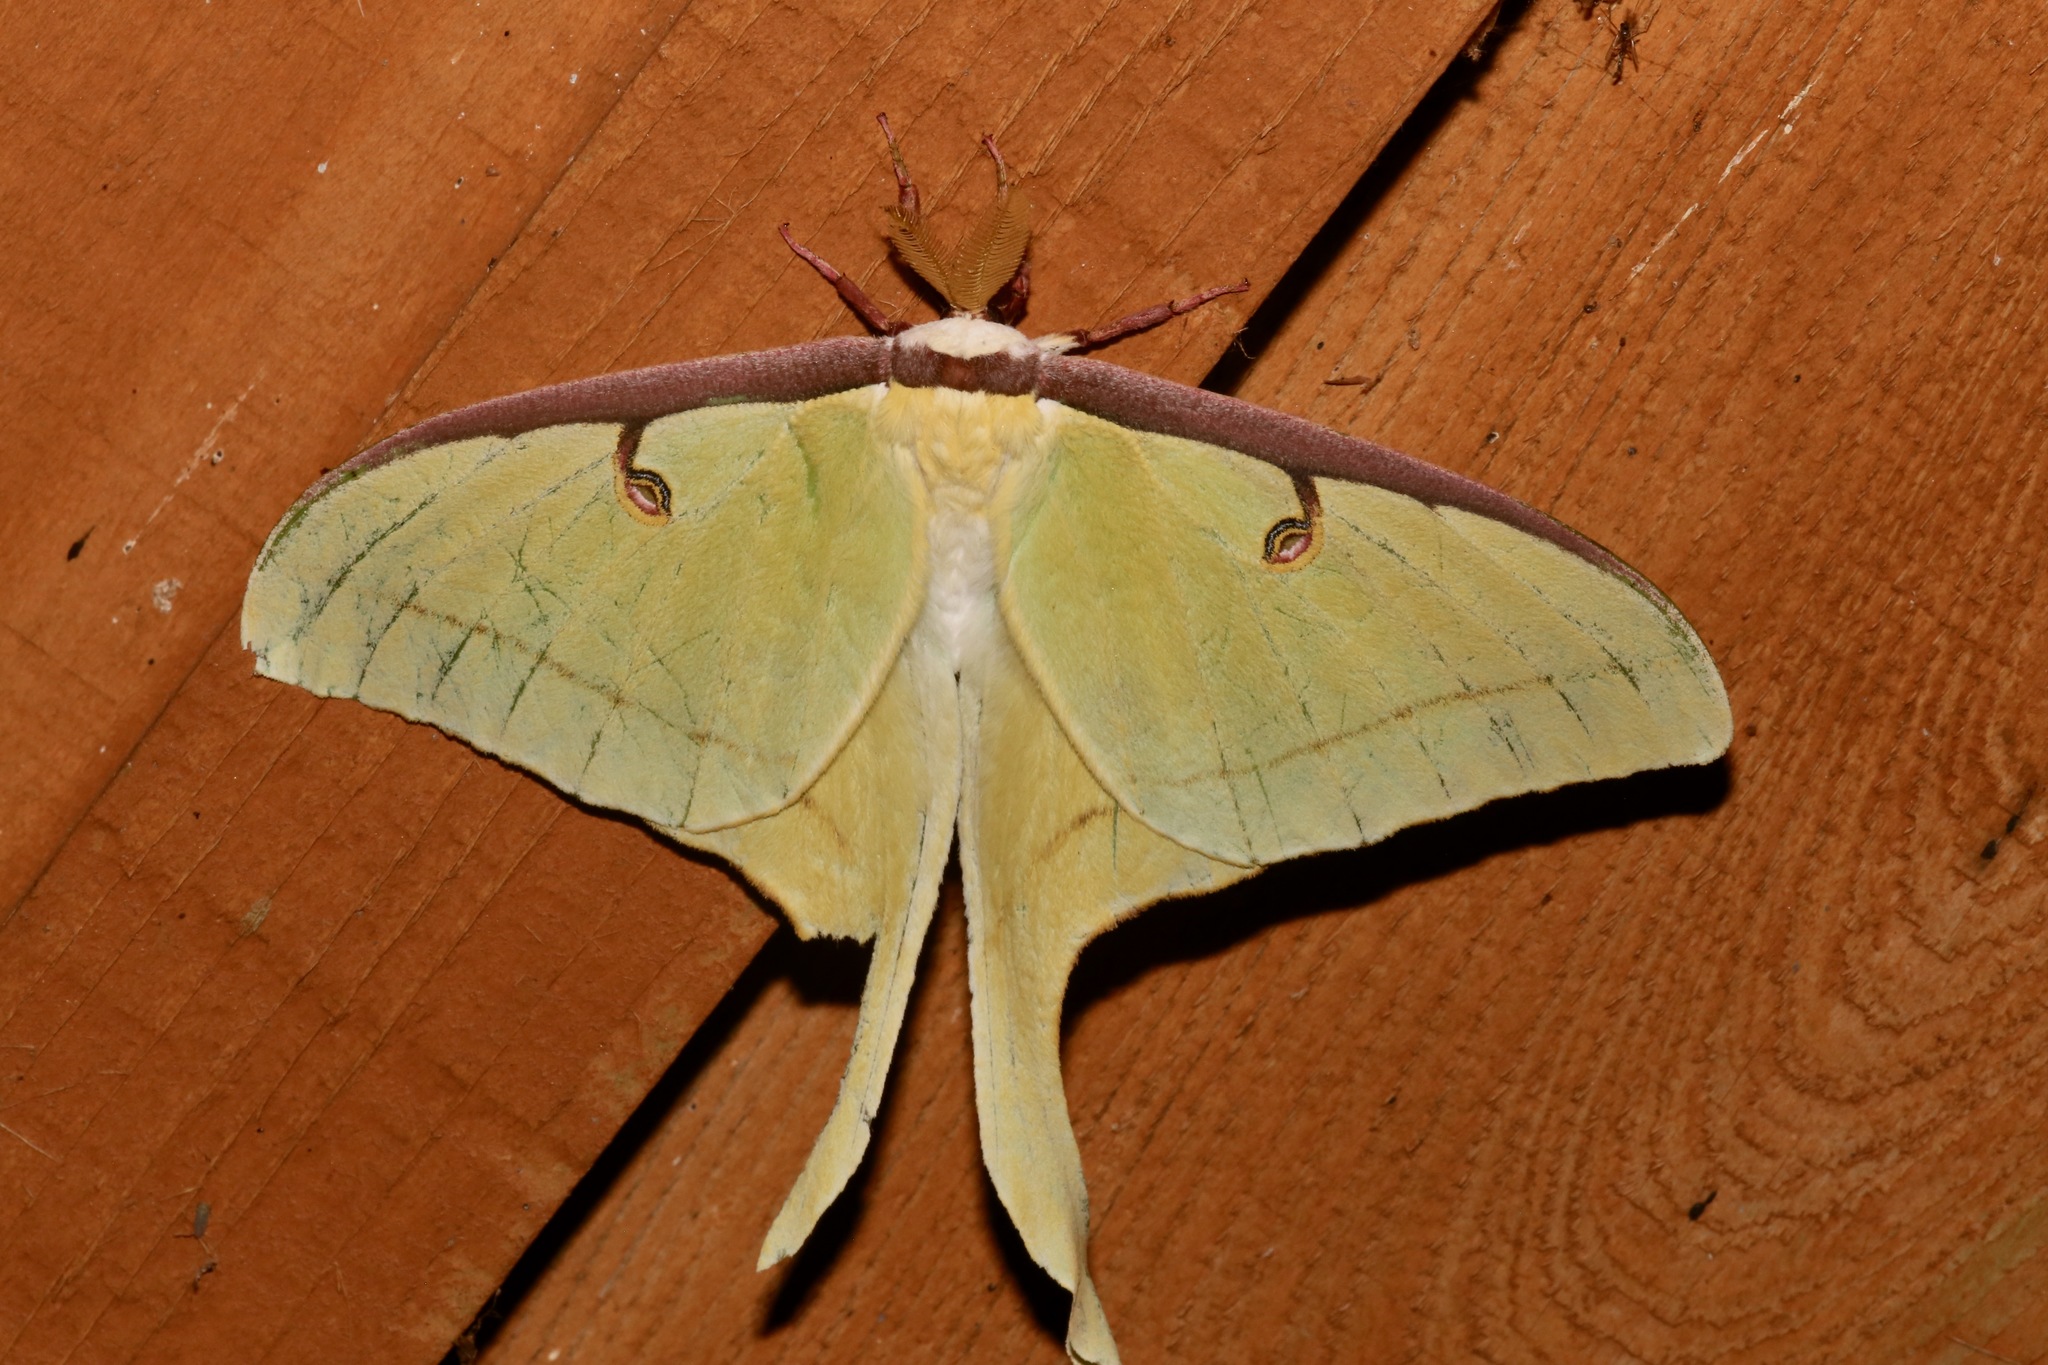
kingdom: Animalia
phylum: Arthropoda
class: Insecta
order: Lepidoptera
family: Saturniidae
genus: Actias
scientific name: Actias luna
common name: Luna moth
